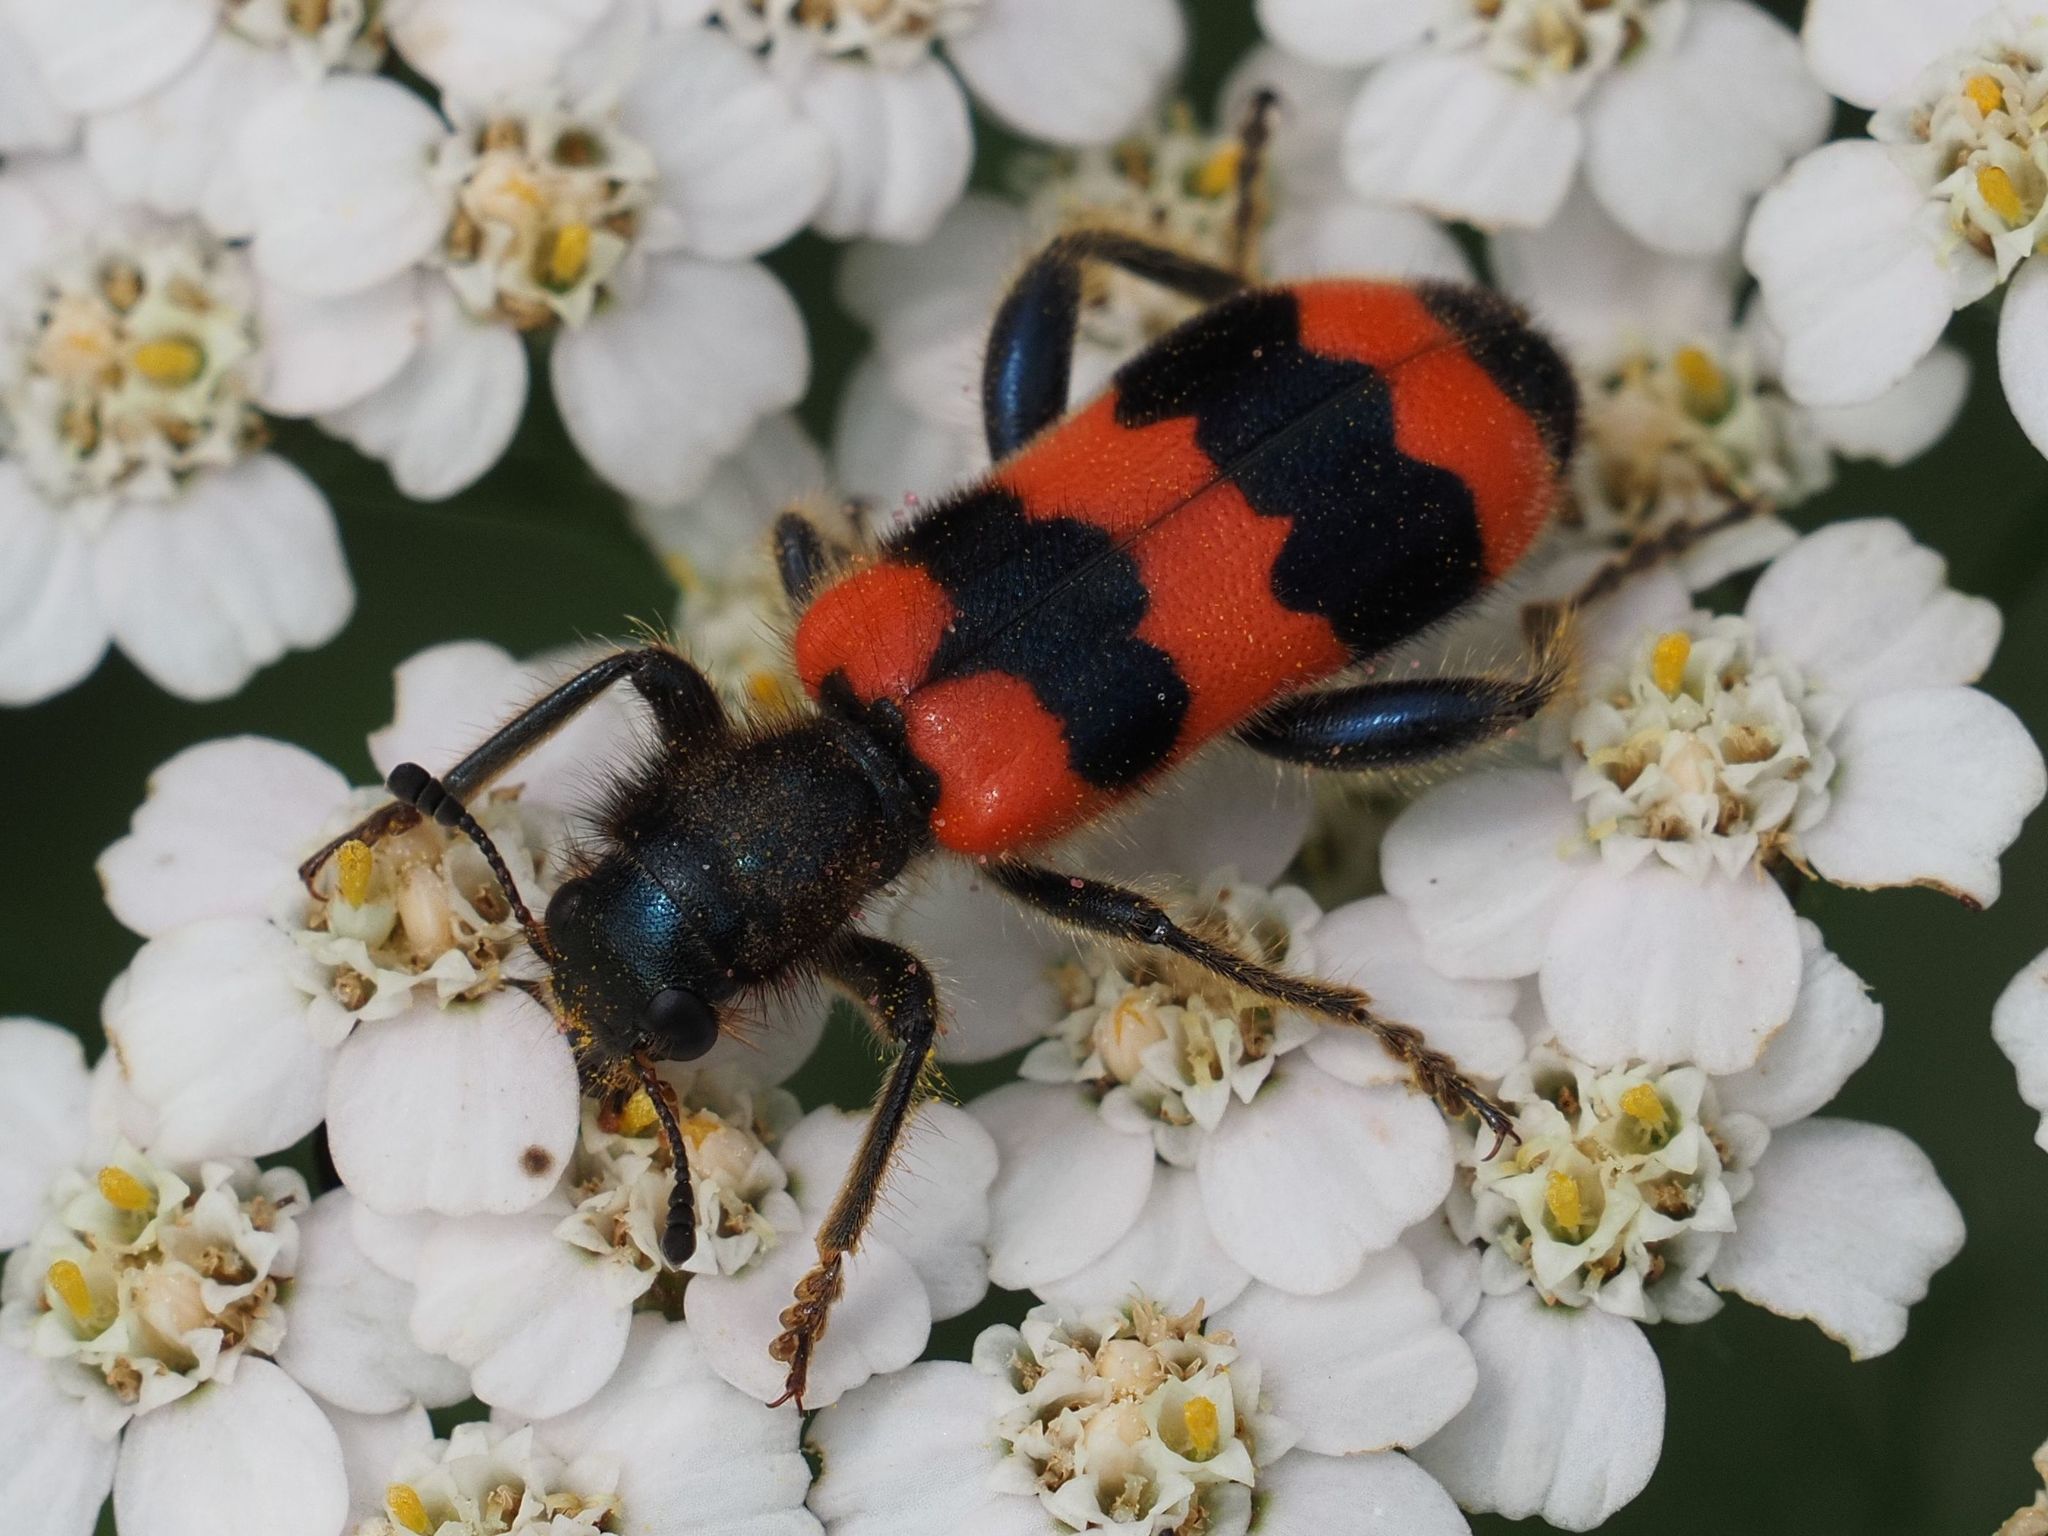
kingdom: Animalia
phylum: Arthropoda
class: Insecta
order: Coleoptera
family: Cleridae
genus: Trichodes
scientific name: Trichodes apiarius
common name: Bee-eating beetle
